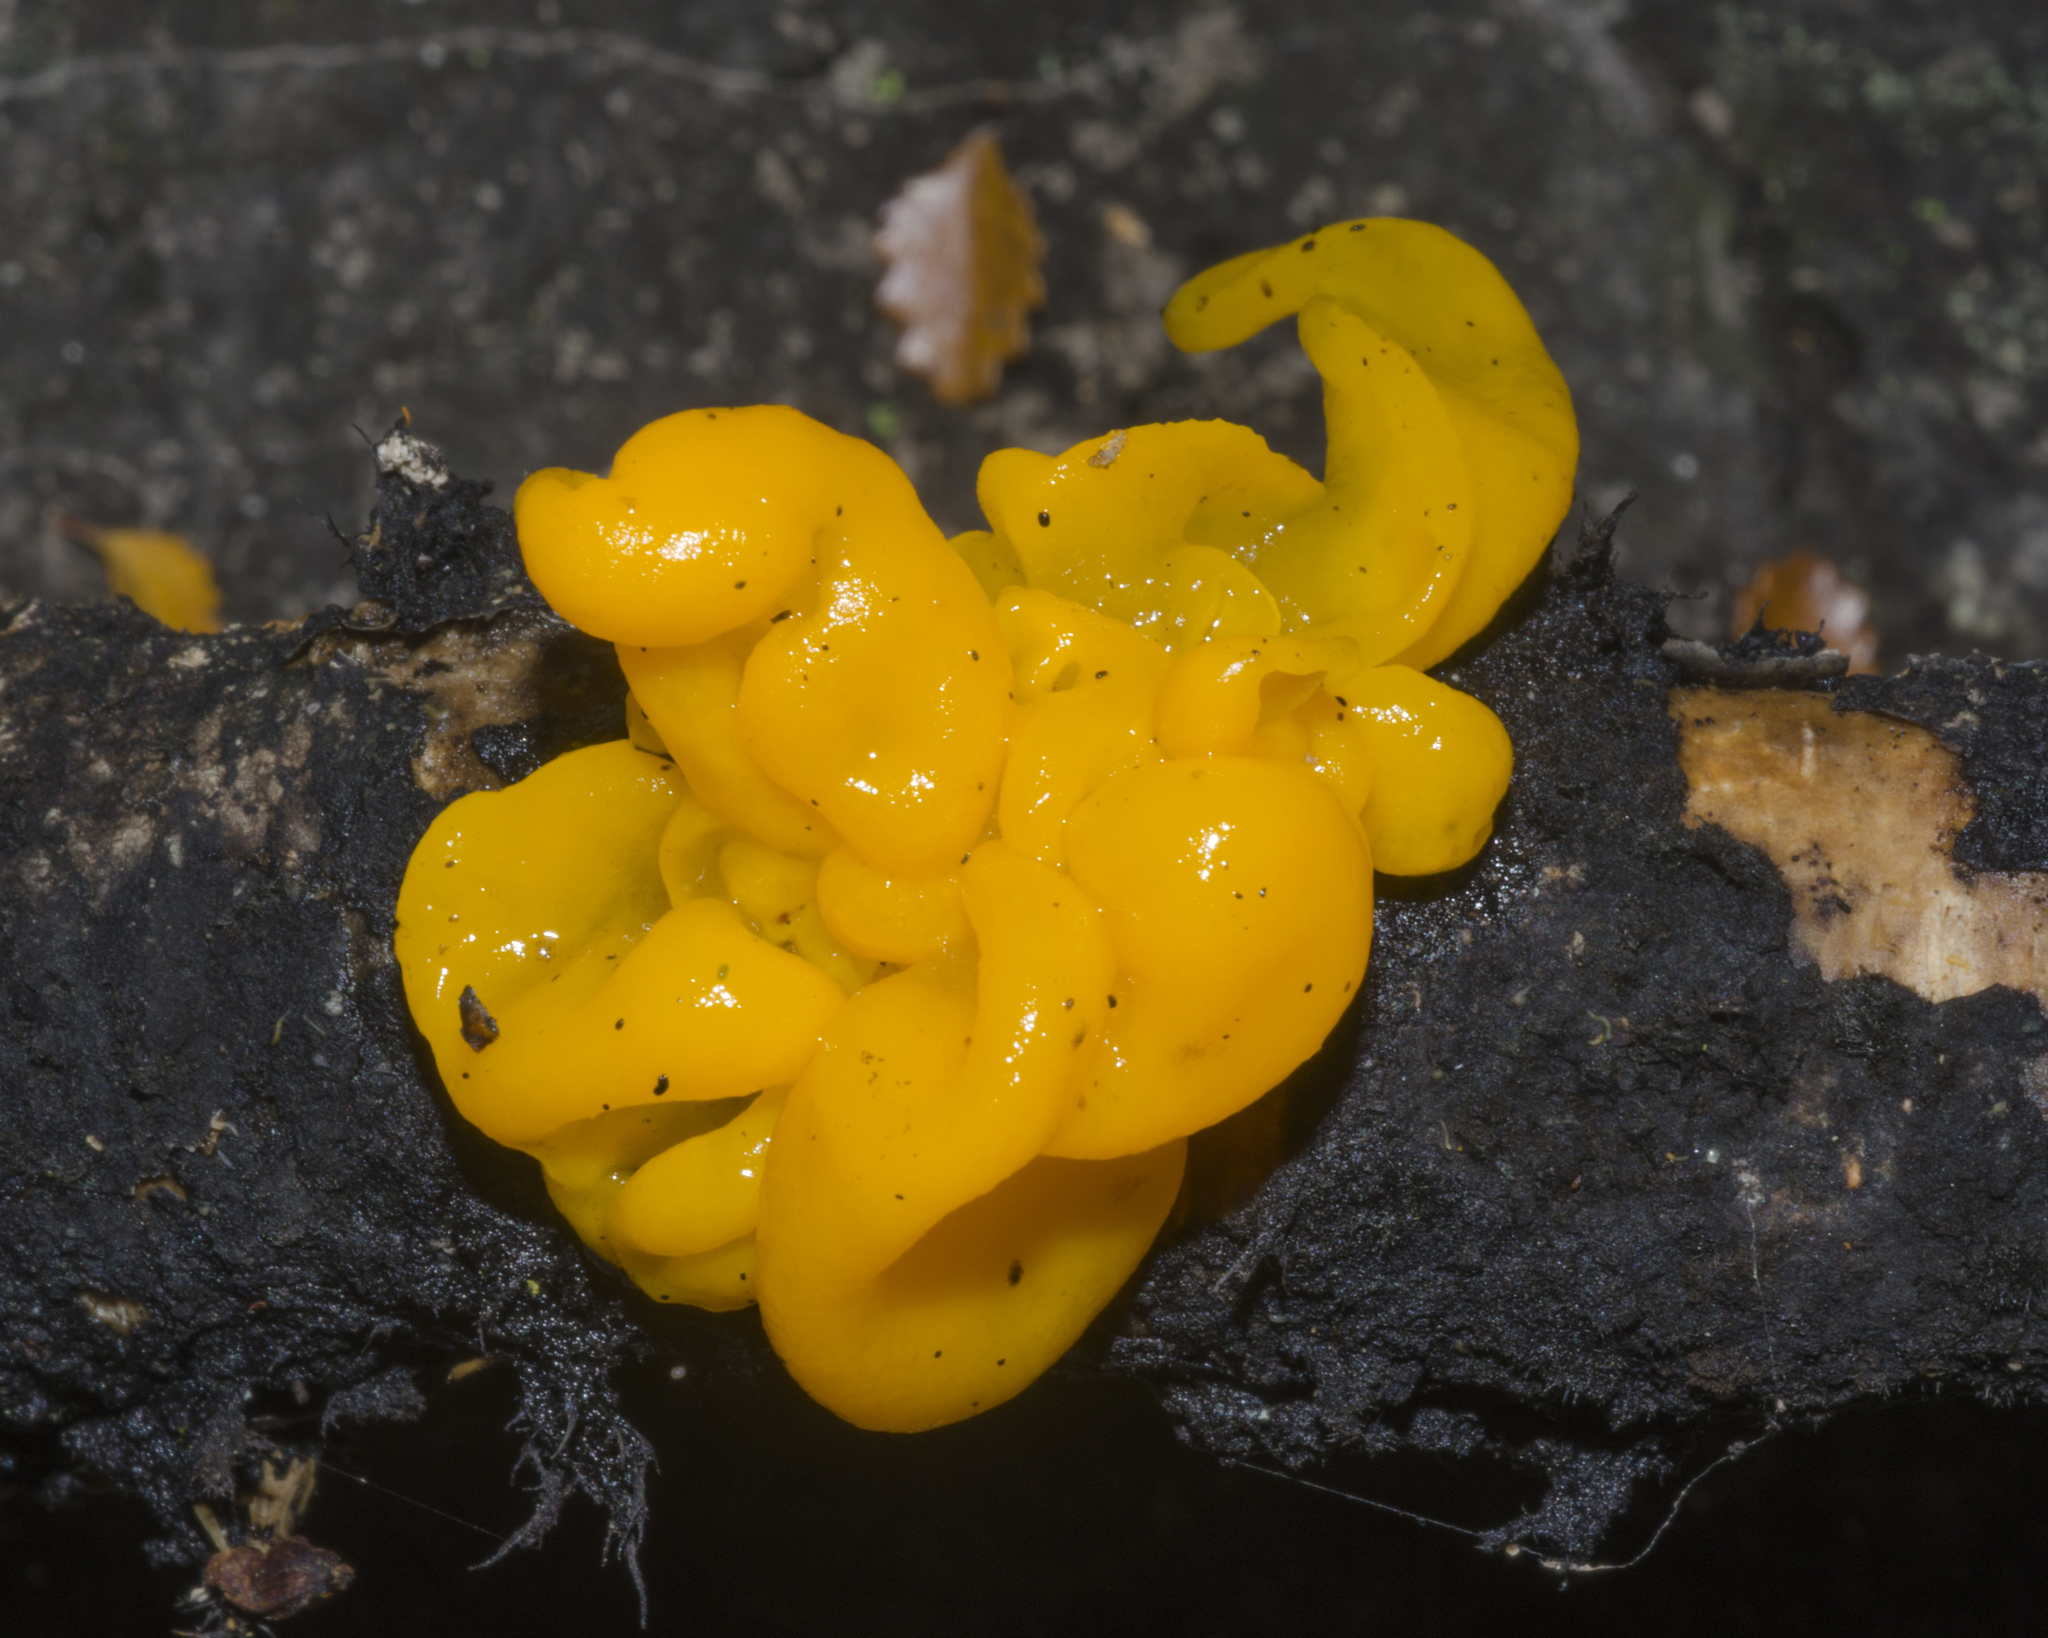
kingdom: Fungi
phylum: Basidiomycota
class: Tremellomycetes
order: Tremellales
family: Tremellaceae
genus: Tremella
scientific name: Tremella mesenterica
